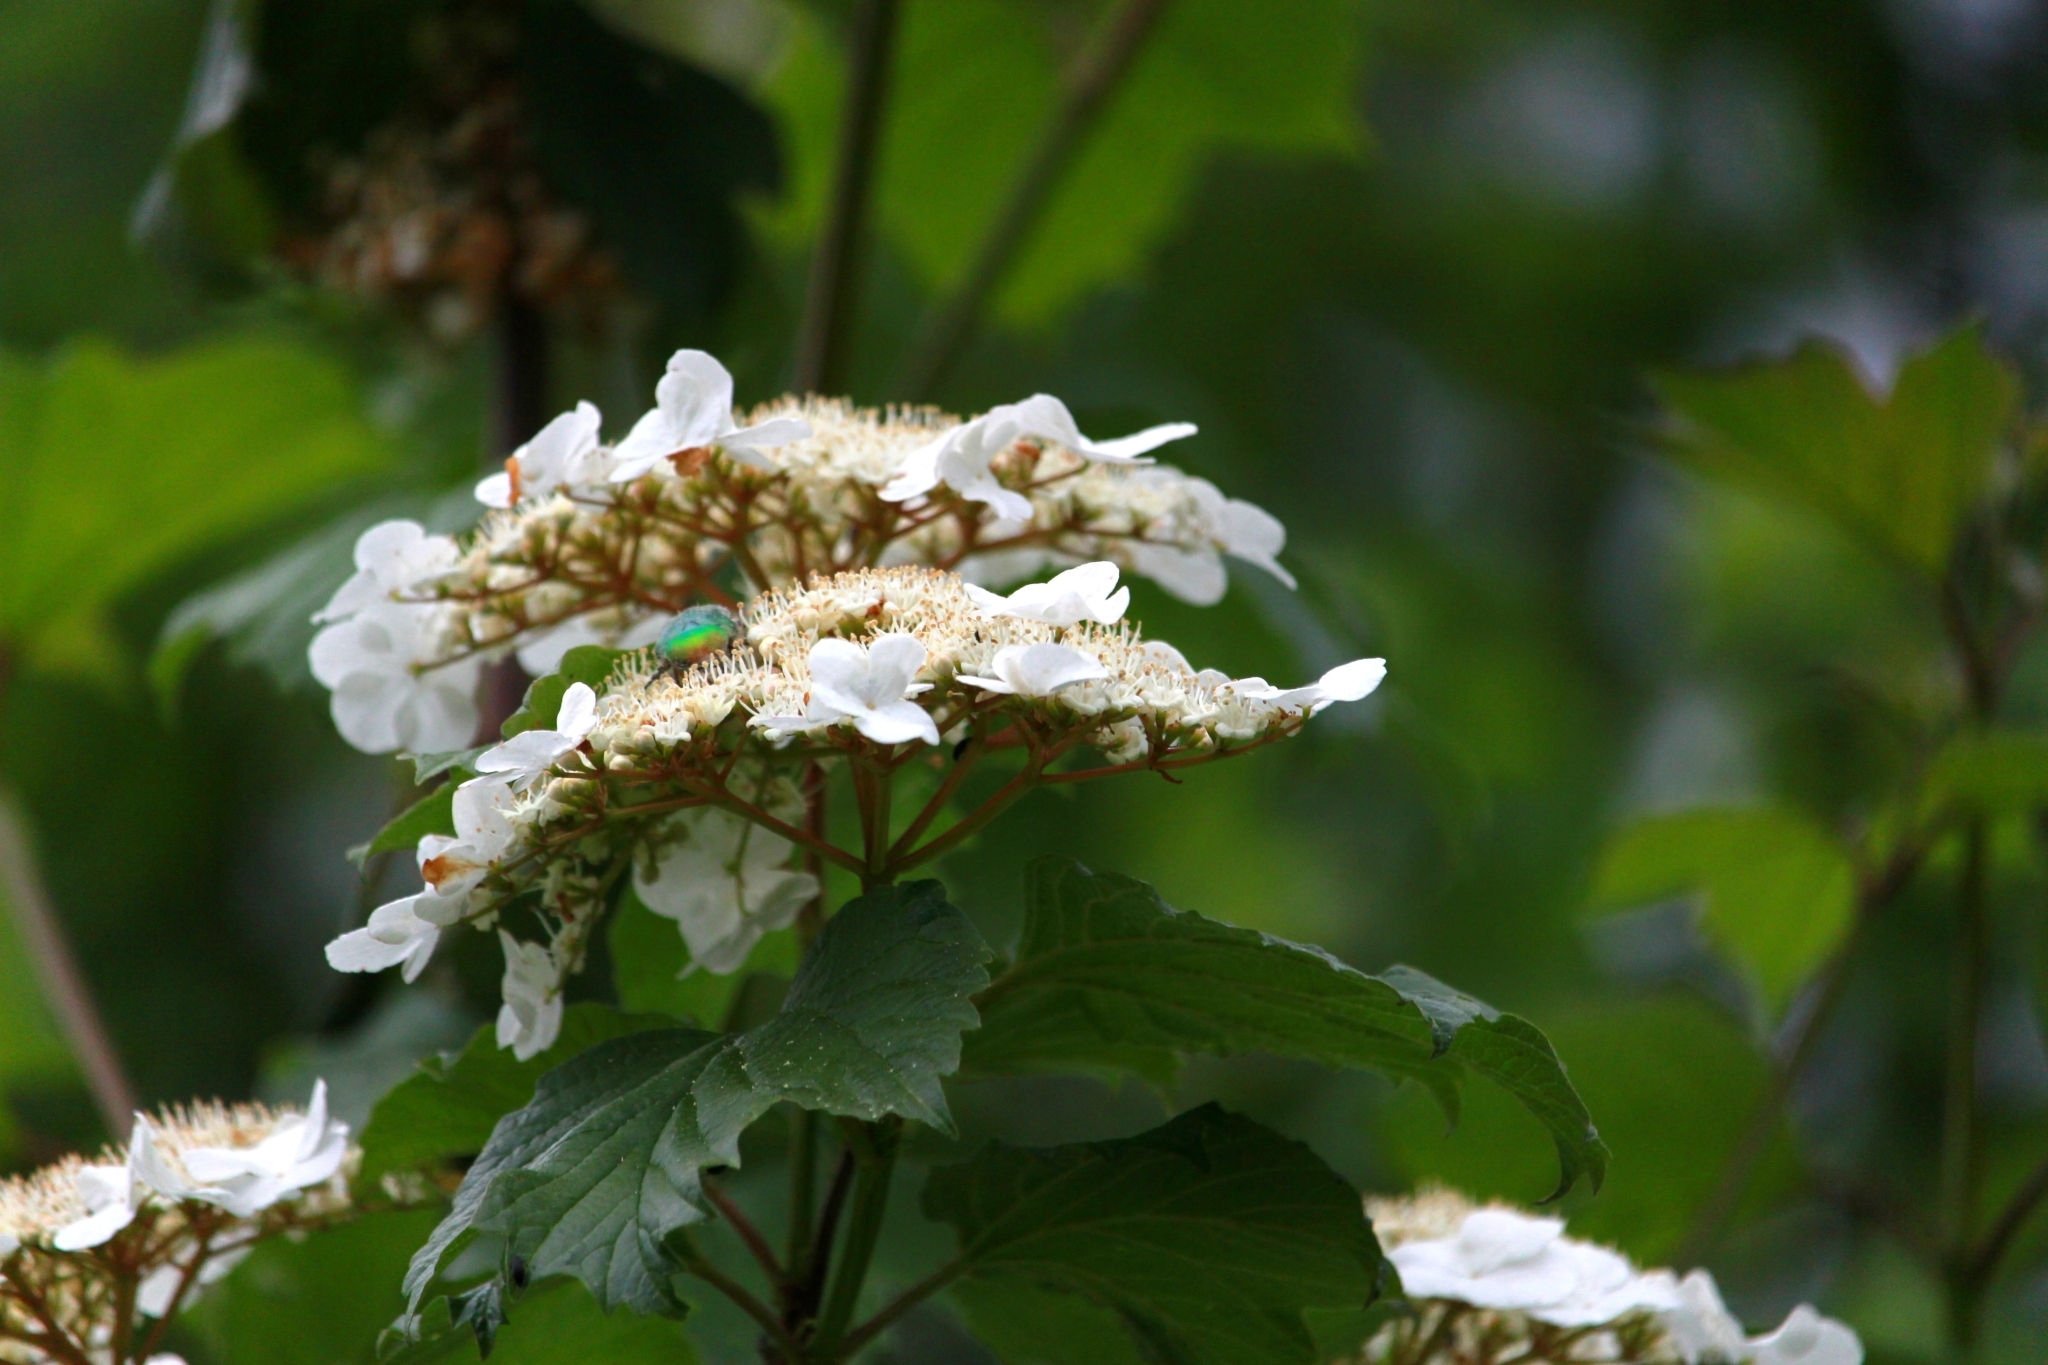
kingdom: Plantae
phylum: Tracheophyta
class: Magnoliopsida
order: Dipsacales
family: Viburnaceae
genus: Viburnum
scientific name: Viburnum opulus
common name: Guelder-rose
